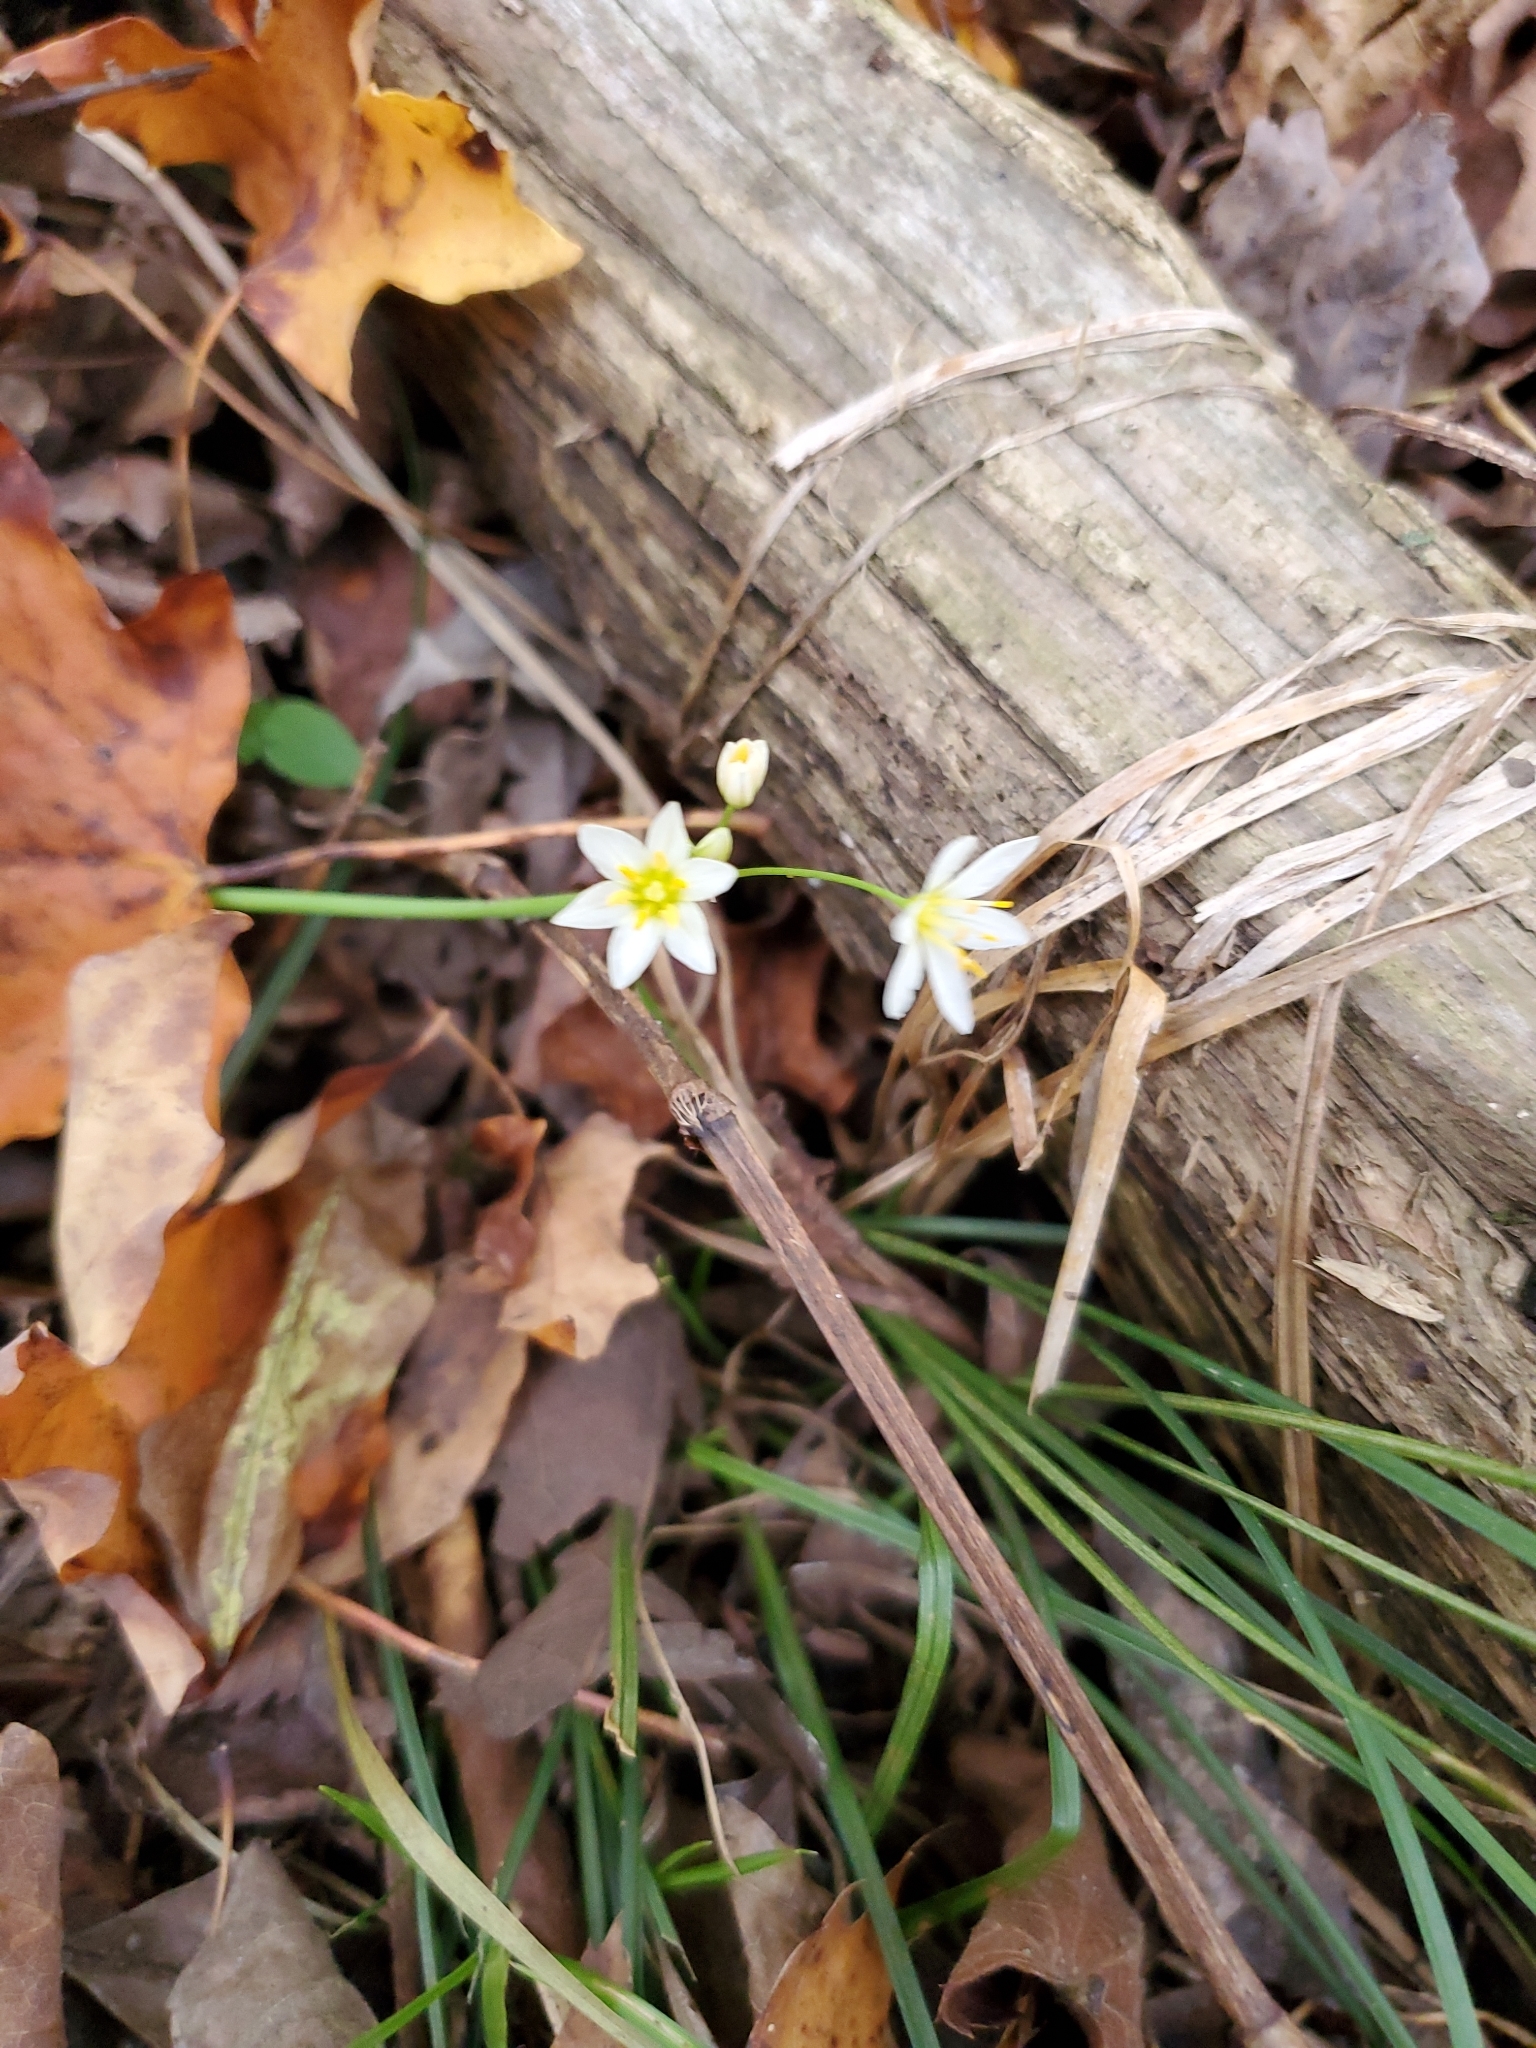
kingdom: Plantae
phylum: Tracheophyta
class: Liliopsida
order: Asparagales
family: Amaryllidaceae
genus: Nothoscordum
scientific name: Nothoscordum bivalve
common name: Crow-poison
